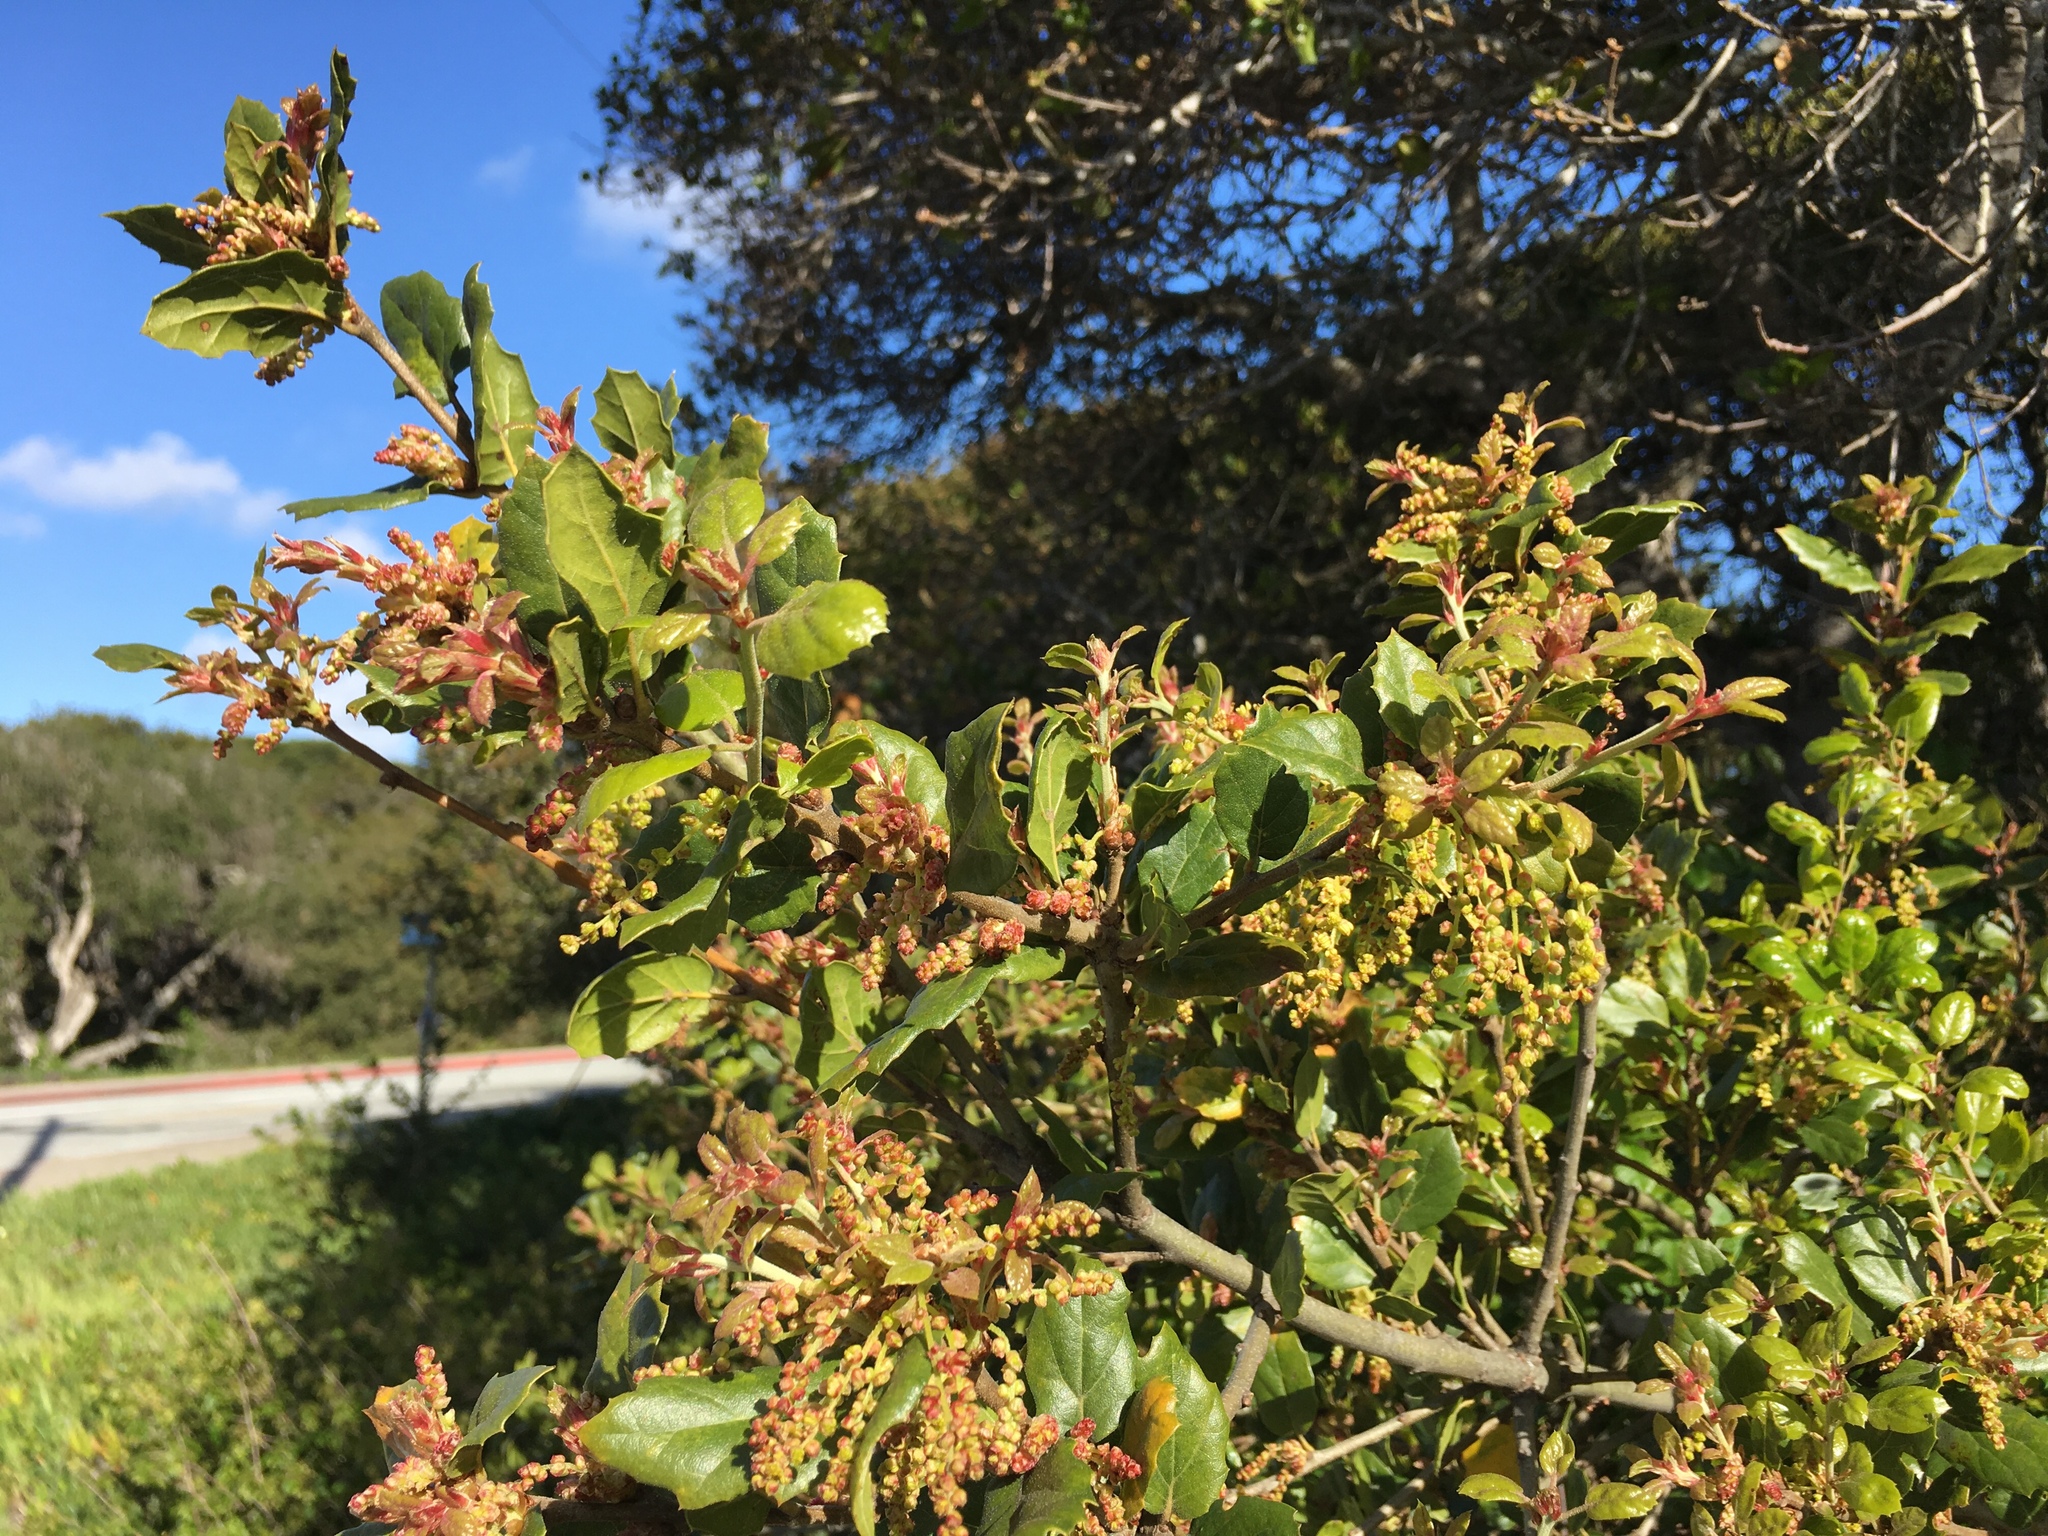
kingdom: Plantae
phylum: Tracheophyta
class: Magnoliopsida
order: Fagales
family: Fagaceae
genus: Quercus
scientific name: Quercus agrifolia
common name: California live oak
